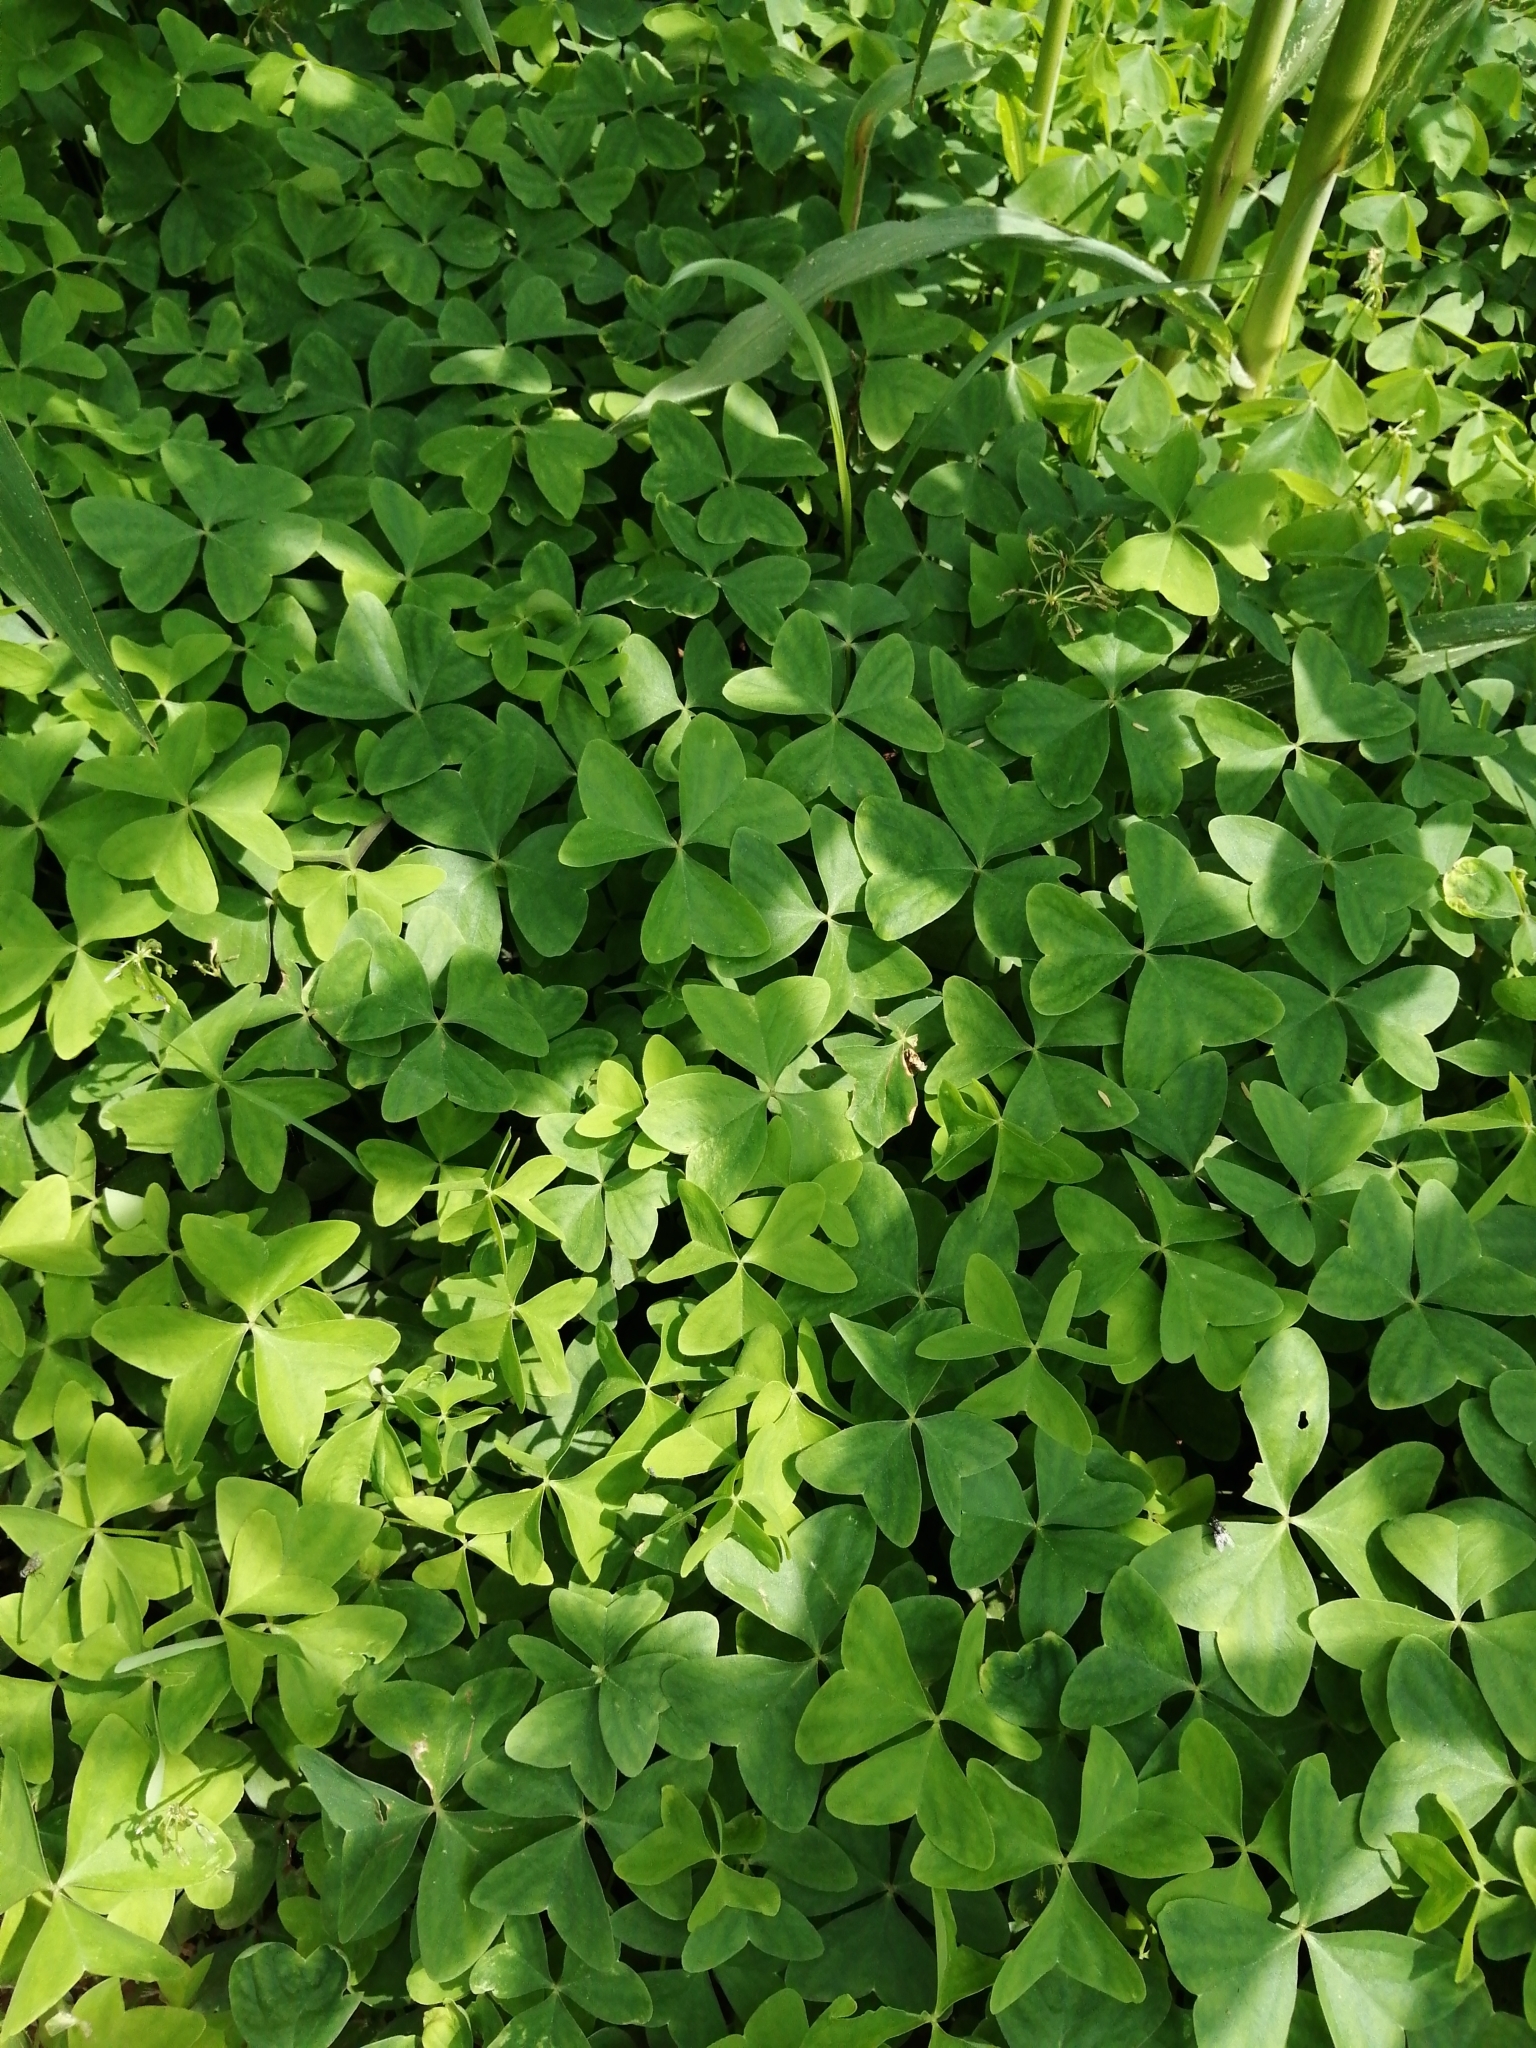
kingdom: Plantae
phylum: Tracheophyta
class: Magnoliopsida
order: Oxalidales
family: Oxalidaceae
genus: Oxalis
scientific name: Oxalis latifolia
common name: Garden pink-sorrel
